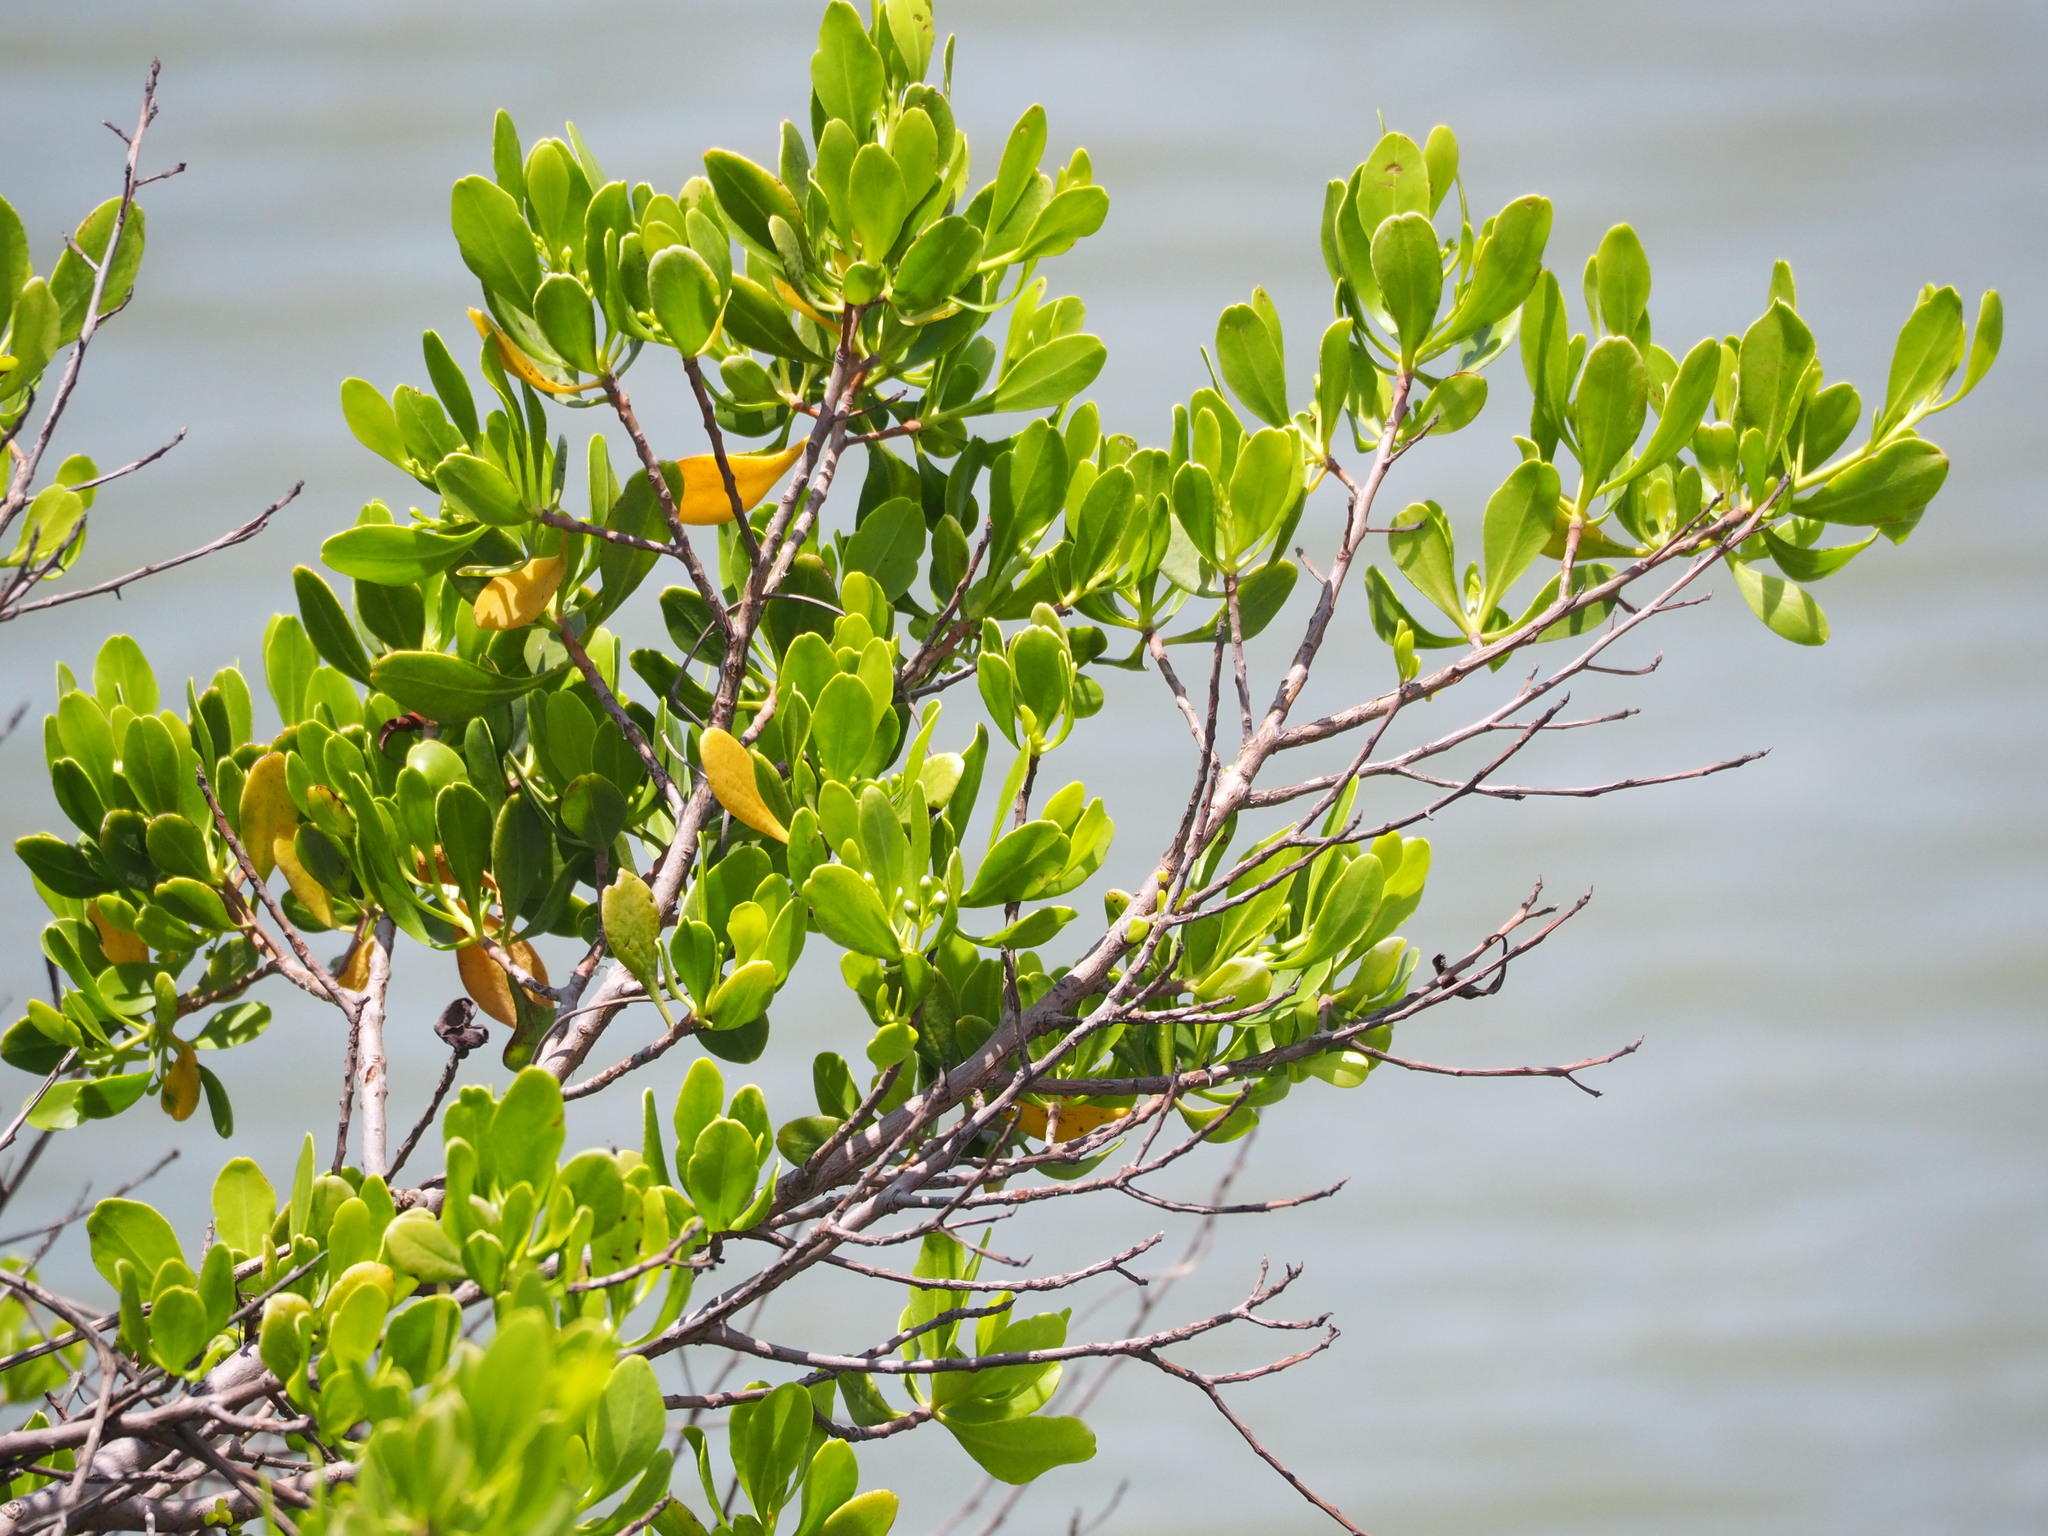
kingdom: Plantae
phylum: Tracheophyta
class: Magnoliopsida
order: Myrtales
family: Combretaceae
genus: Lumnitzera
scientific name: Lumnitzera racemosa
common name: White-flowered black mangrove
